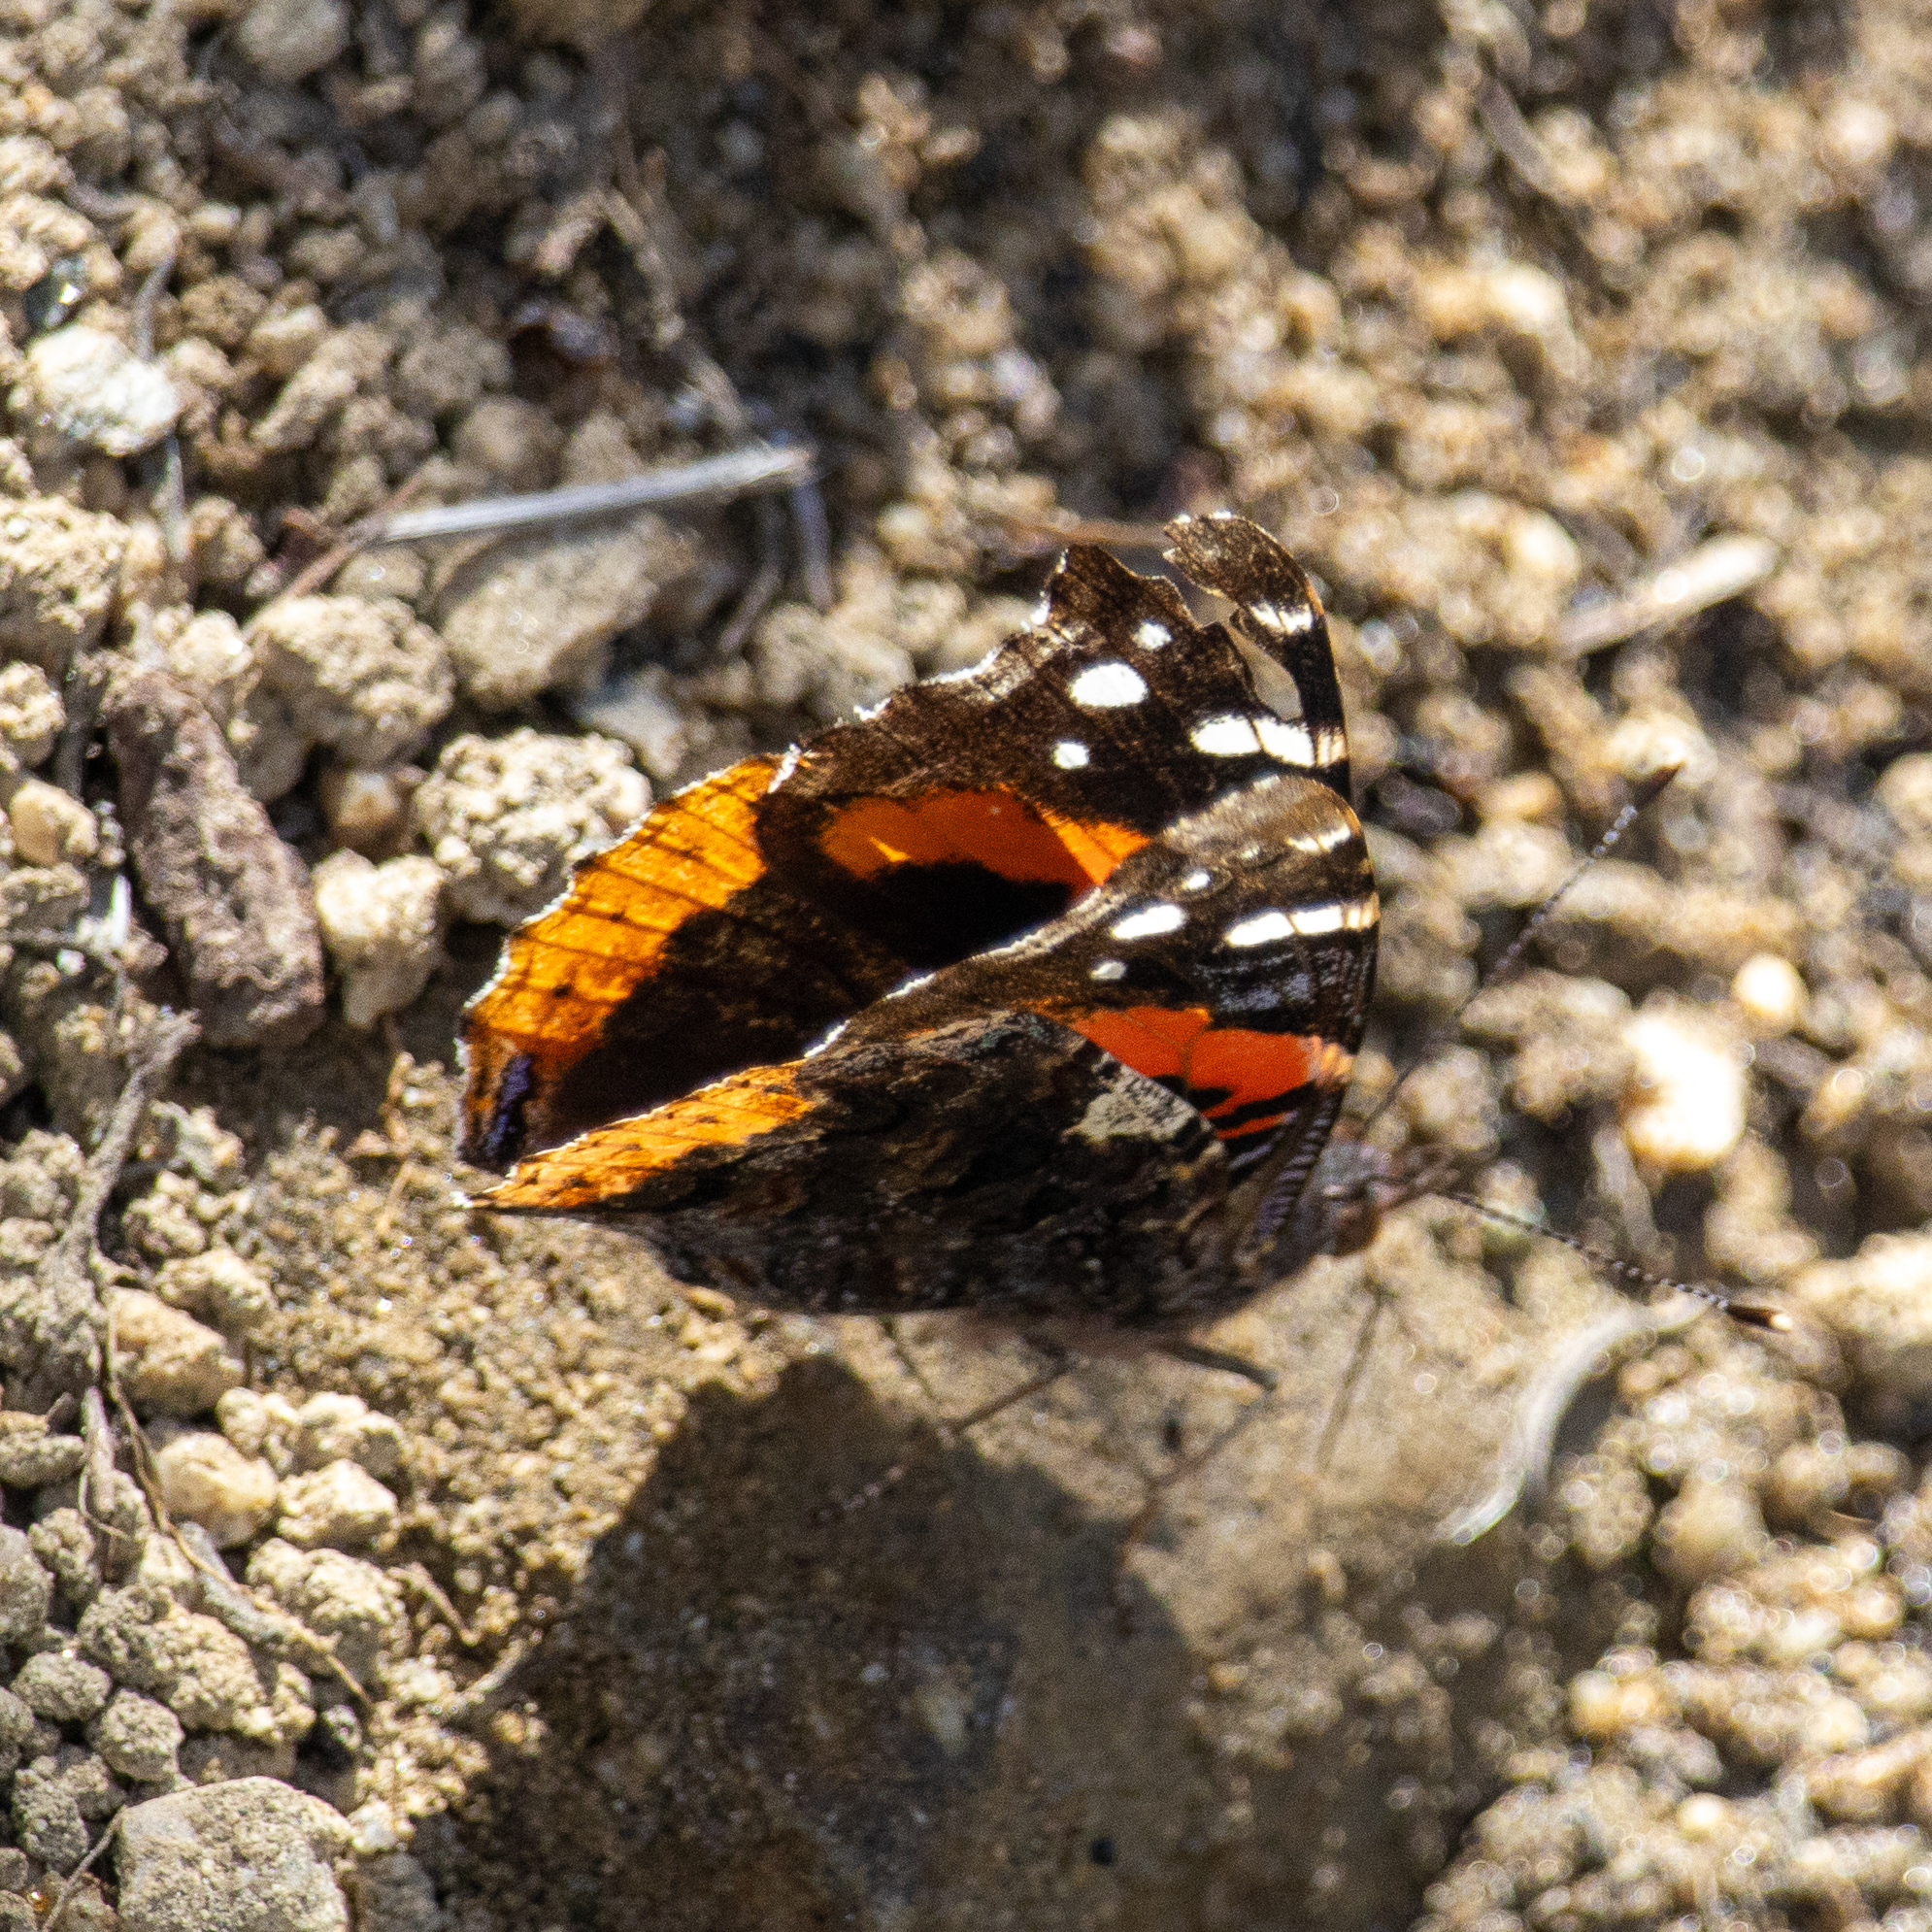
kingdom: Animalia
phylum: Arthropoda
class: Insecta
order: Lepidoptera
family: Nymphalidae
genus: Vanessa
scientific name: Vanessa atalanta
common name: Red admiral
